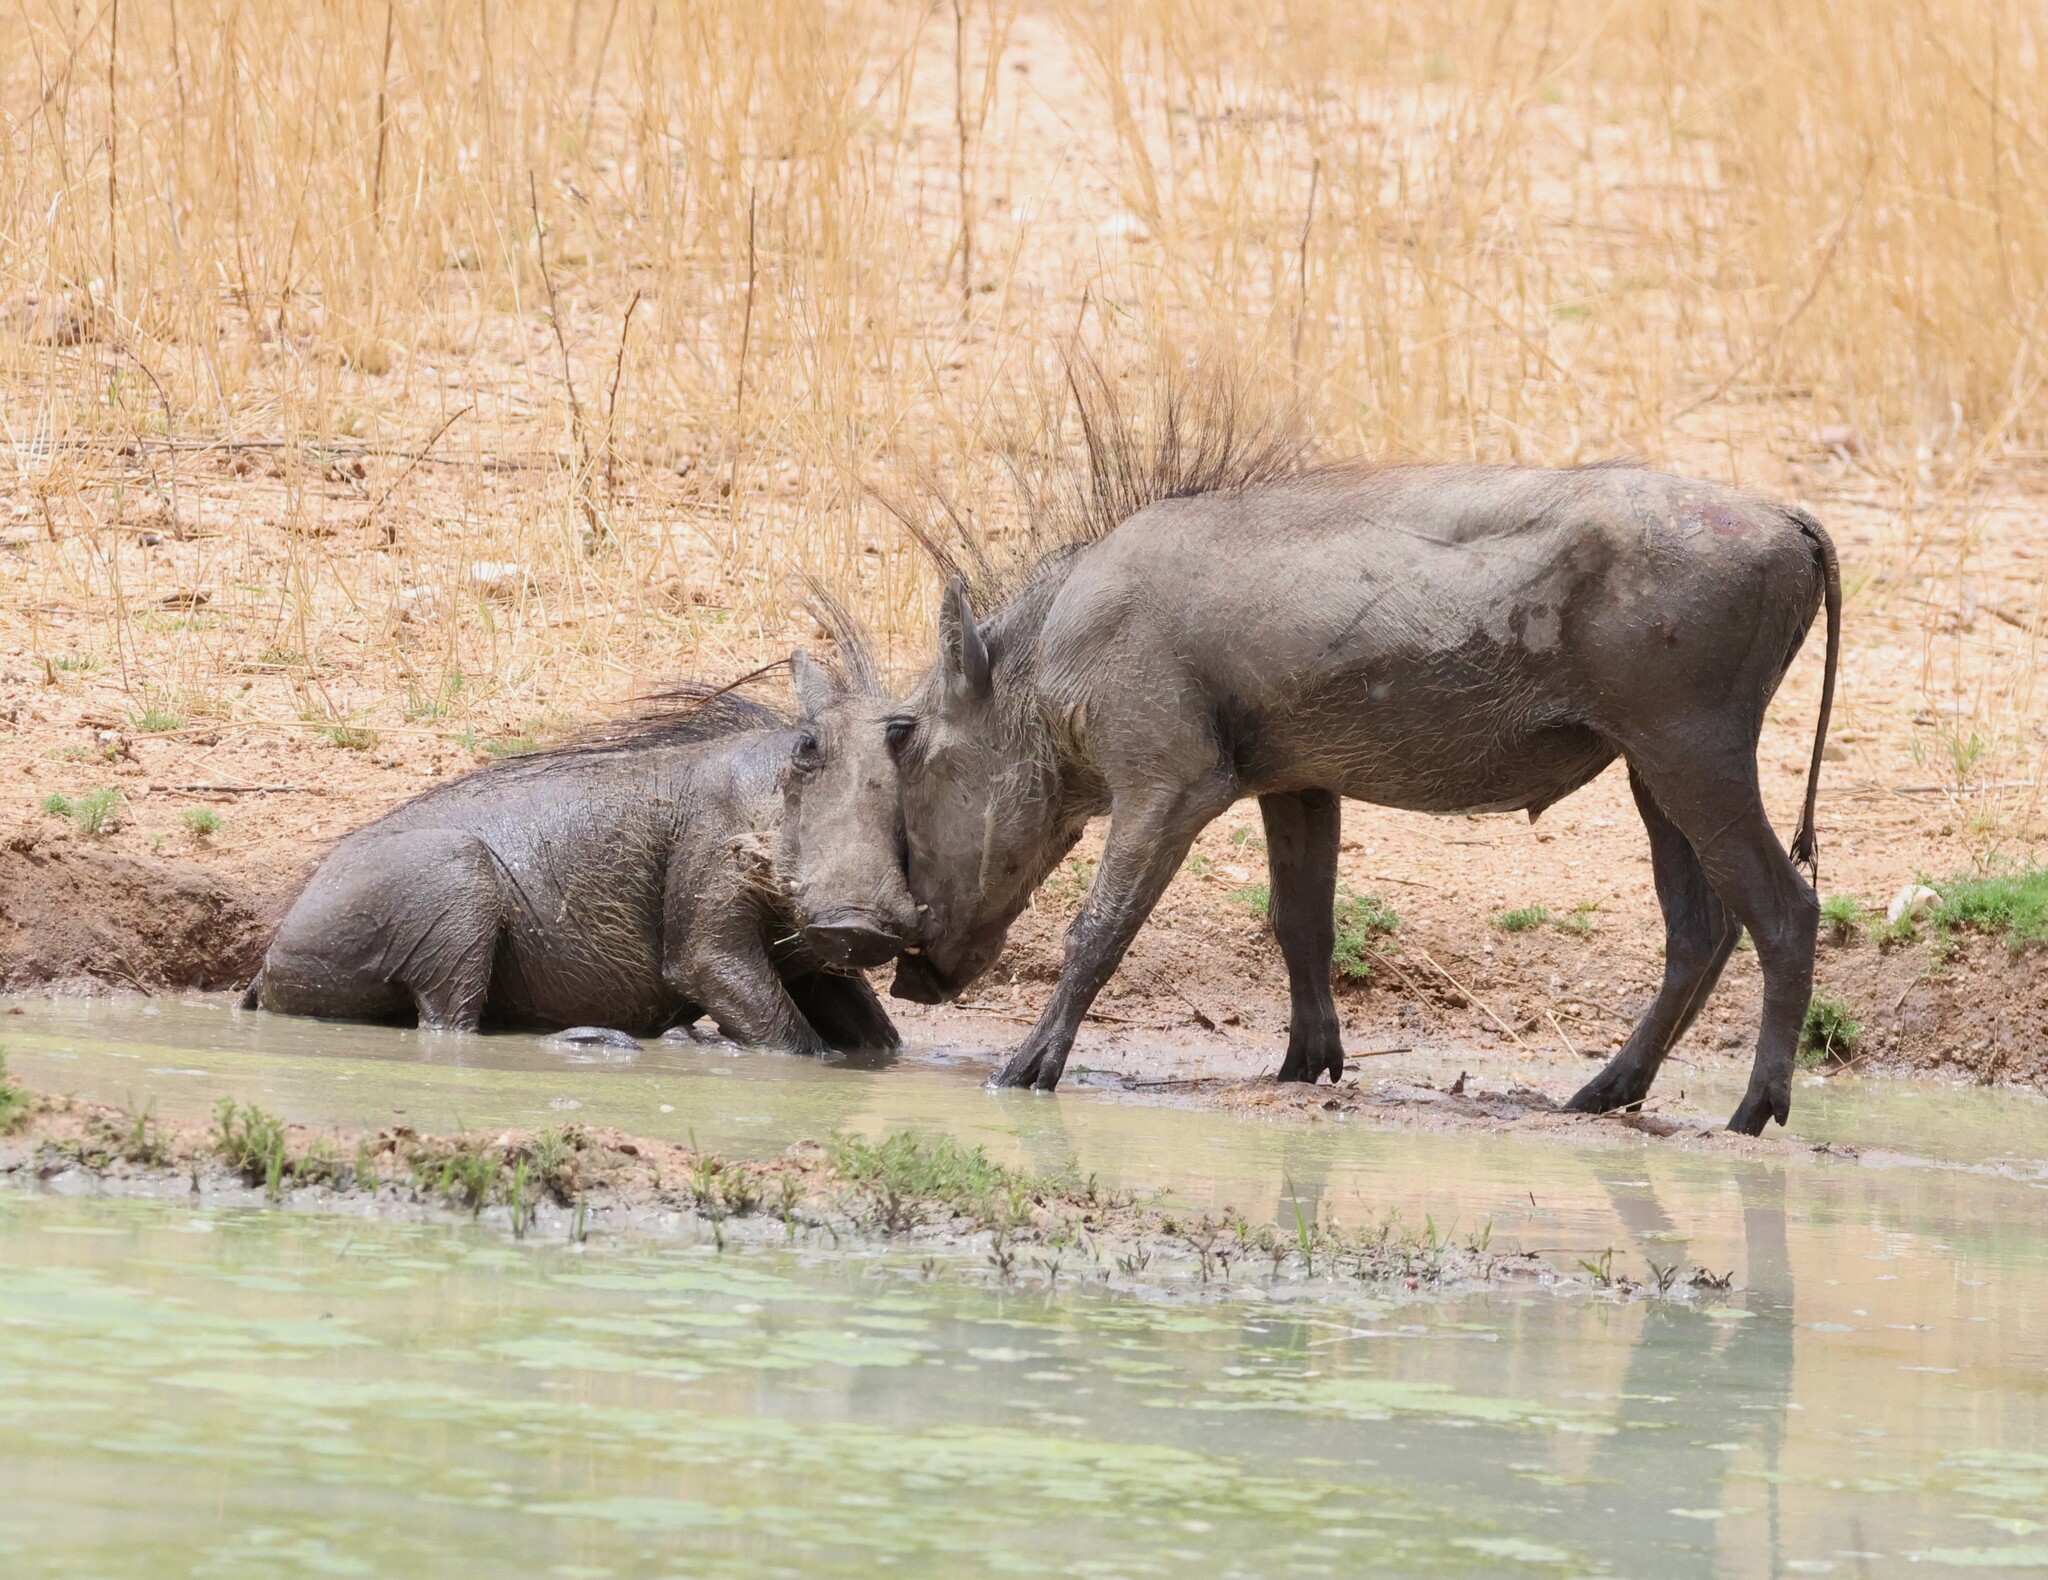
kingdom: Animalia
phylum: Chordata
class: Mammalia
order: Artiodactyla
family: Suidae
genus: Phacochoerus
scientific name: Phacochoerus africanus
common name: Common warthog
